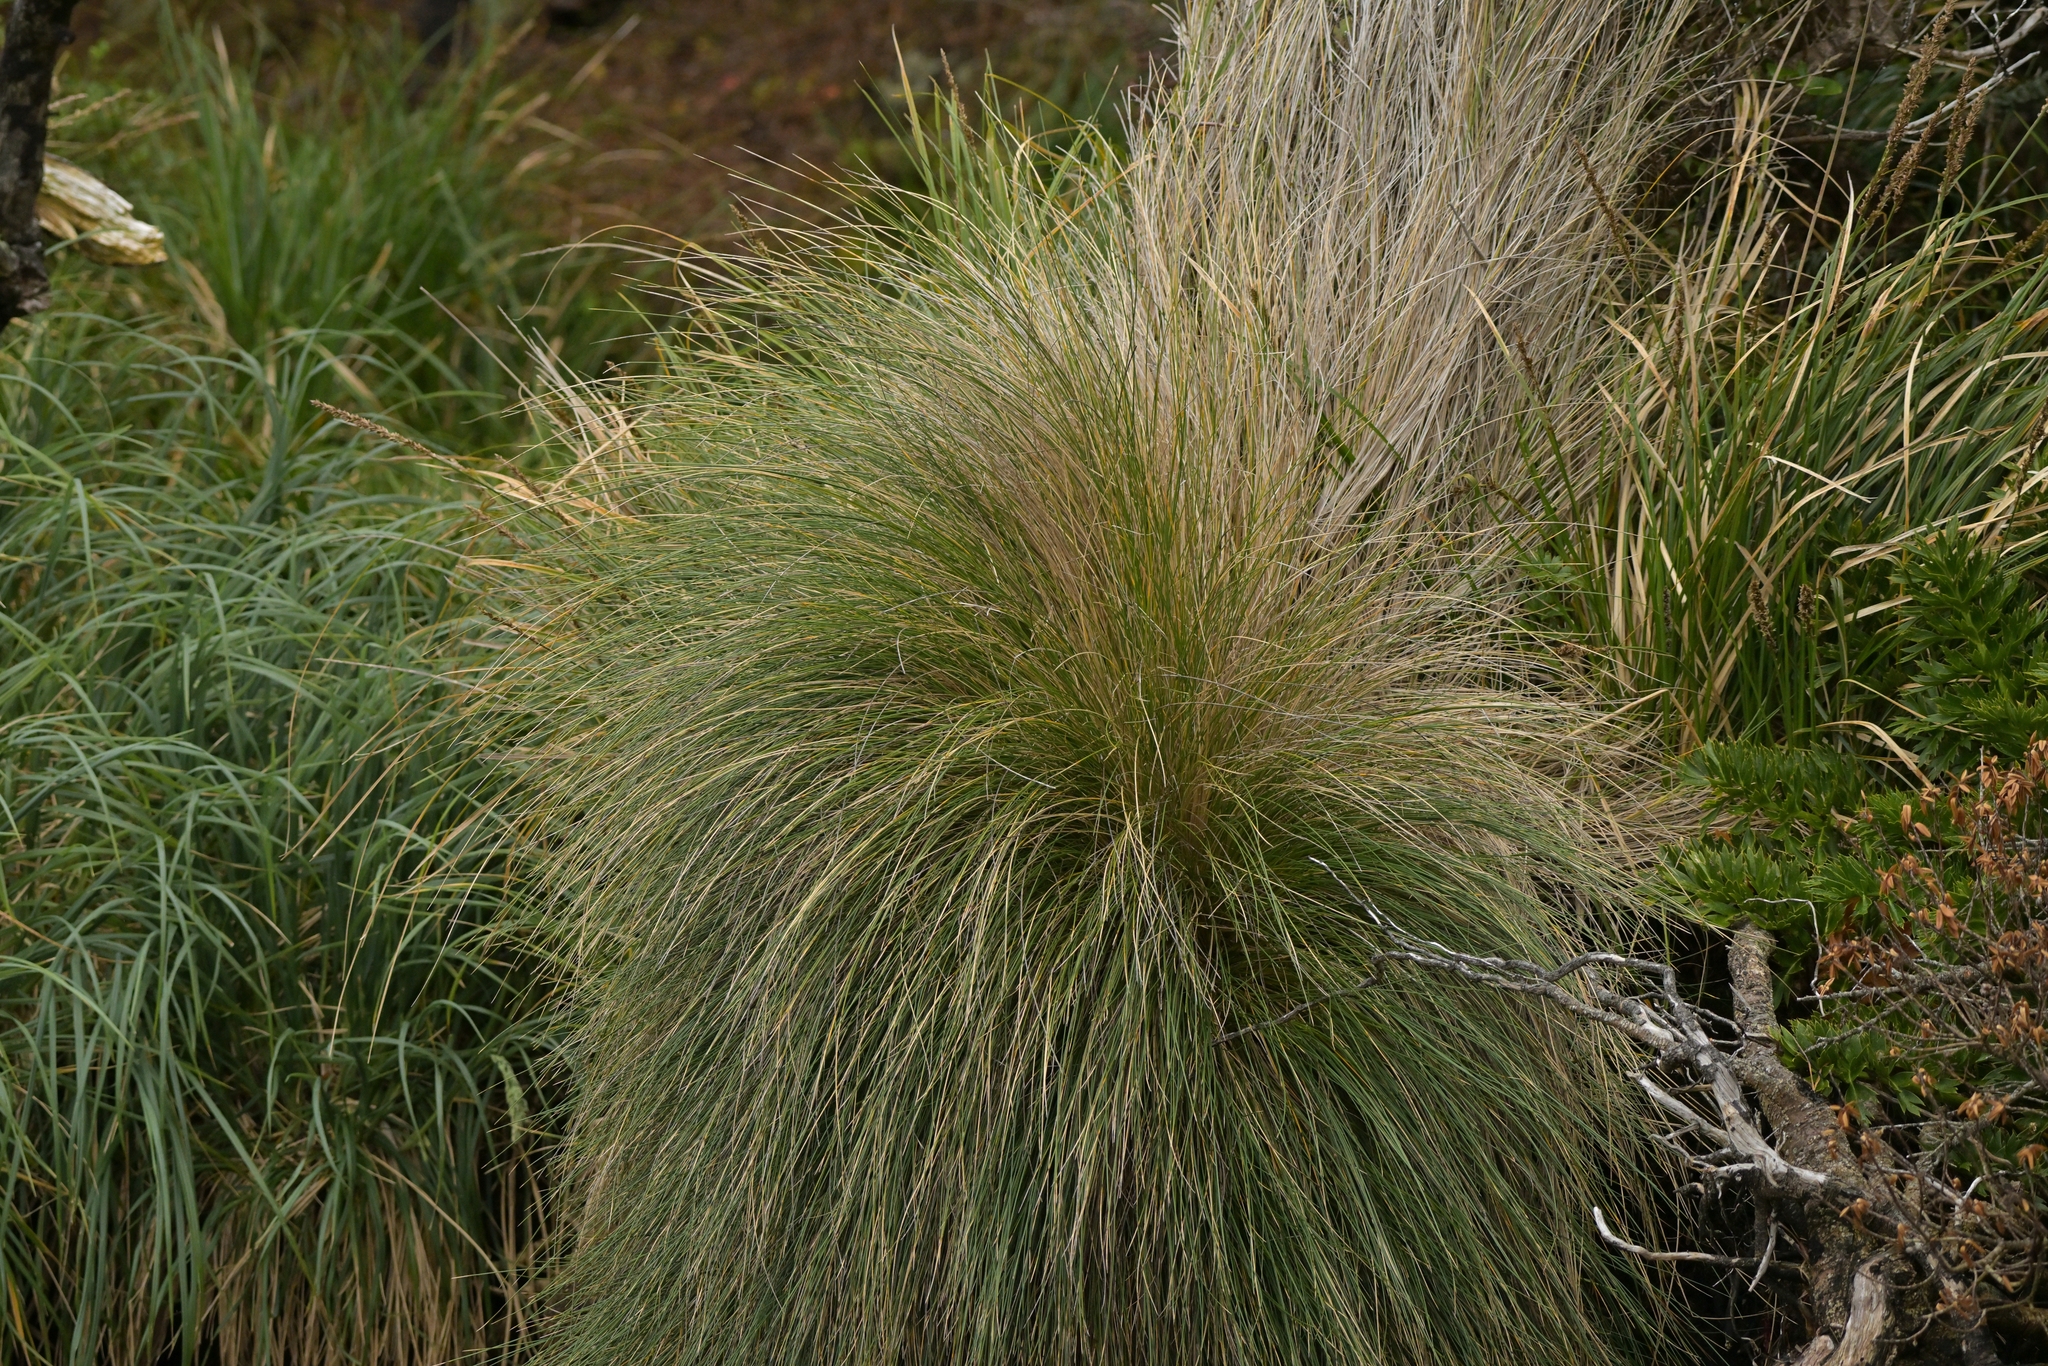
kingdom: Plantae
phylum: Tracheophyta
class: Liliopsida
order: Poales
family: Poaceae
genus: Poa
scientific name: Poa litorosa
